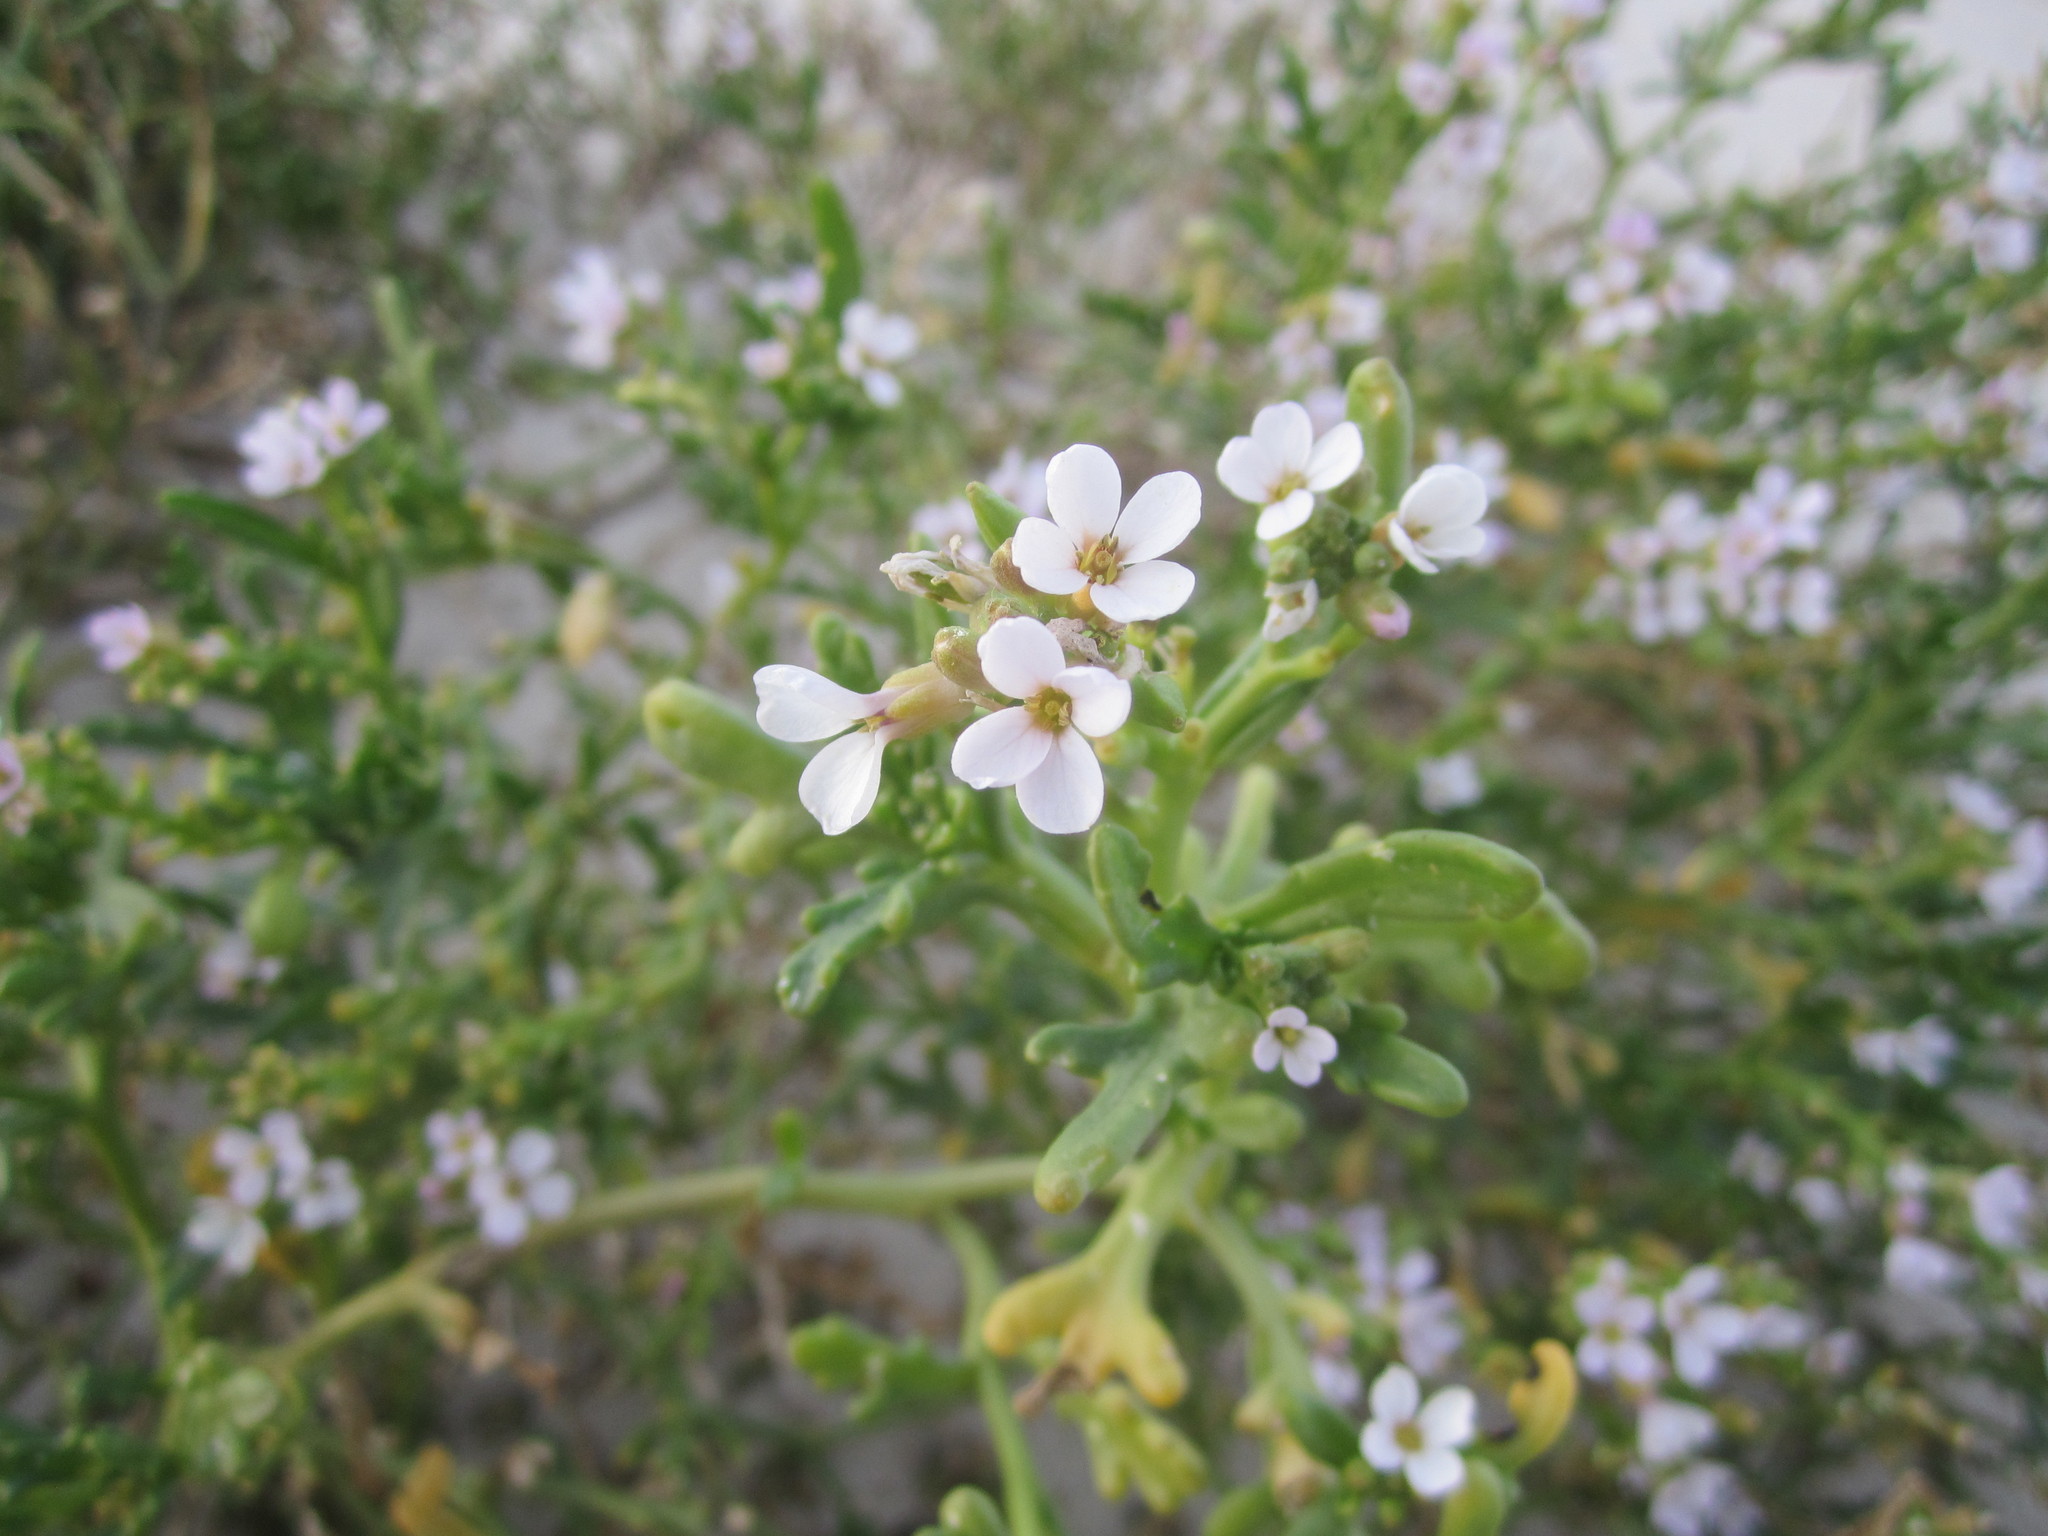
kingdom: Plantae
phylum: Tracheophyta
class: Magnoliopsida
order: Brassicales
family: Brassicaceae
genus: Cakile
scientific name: Cakile maritima
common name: Sea rocket
